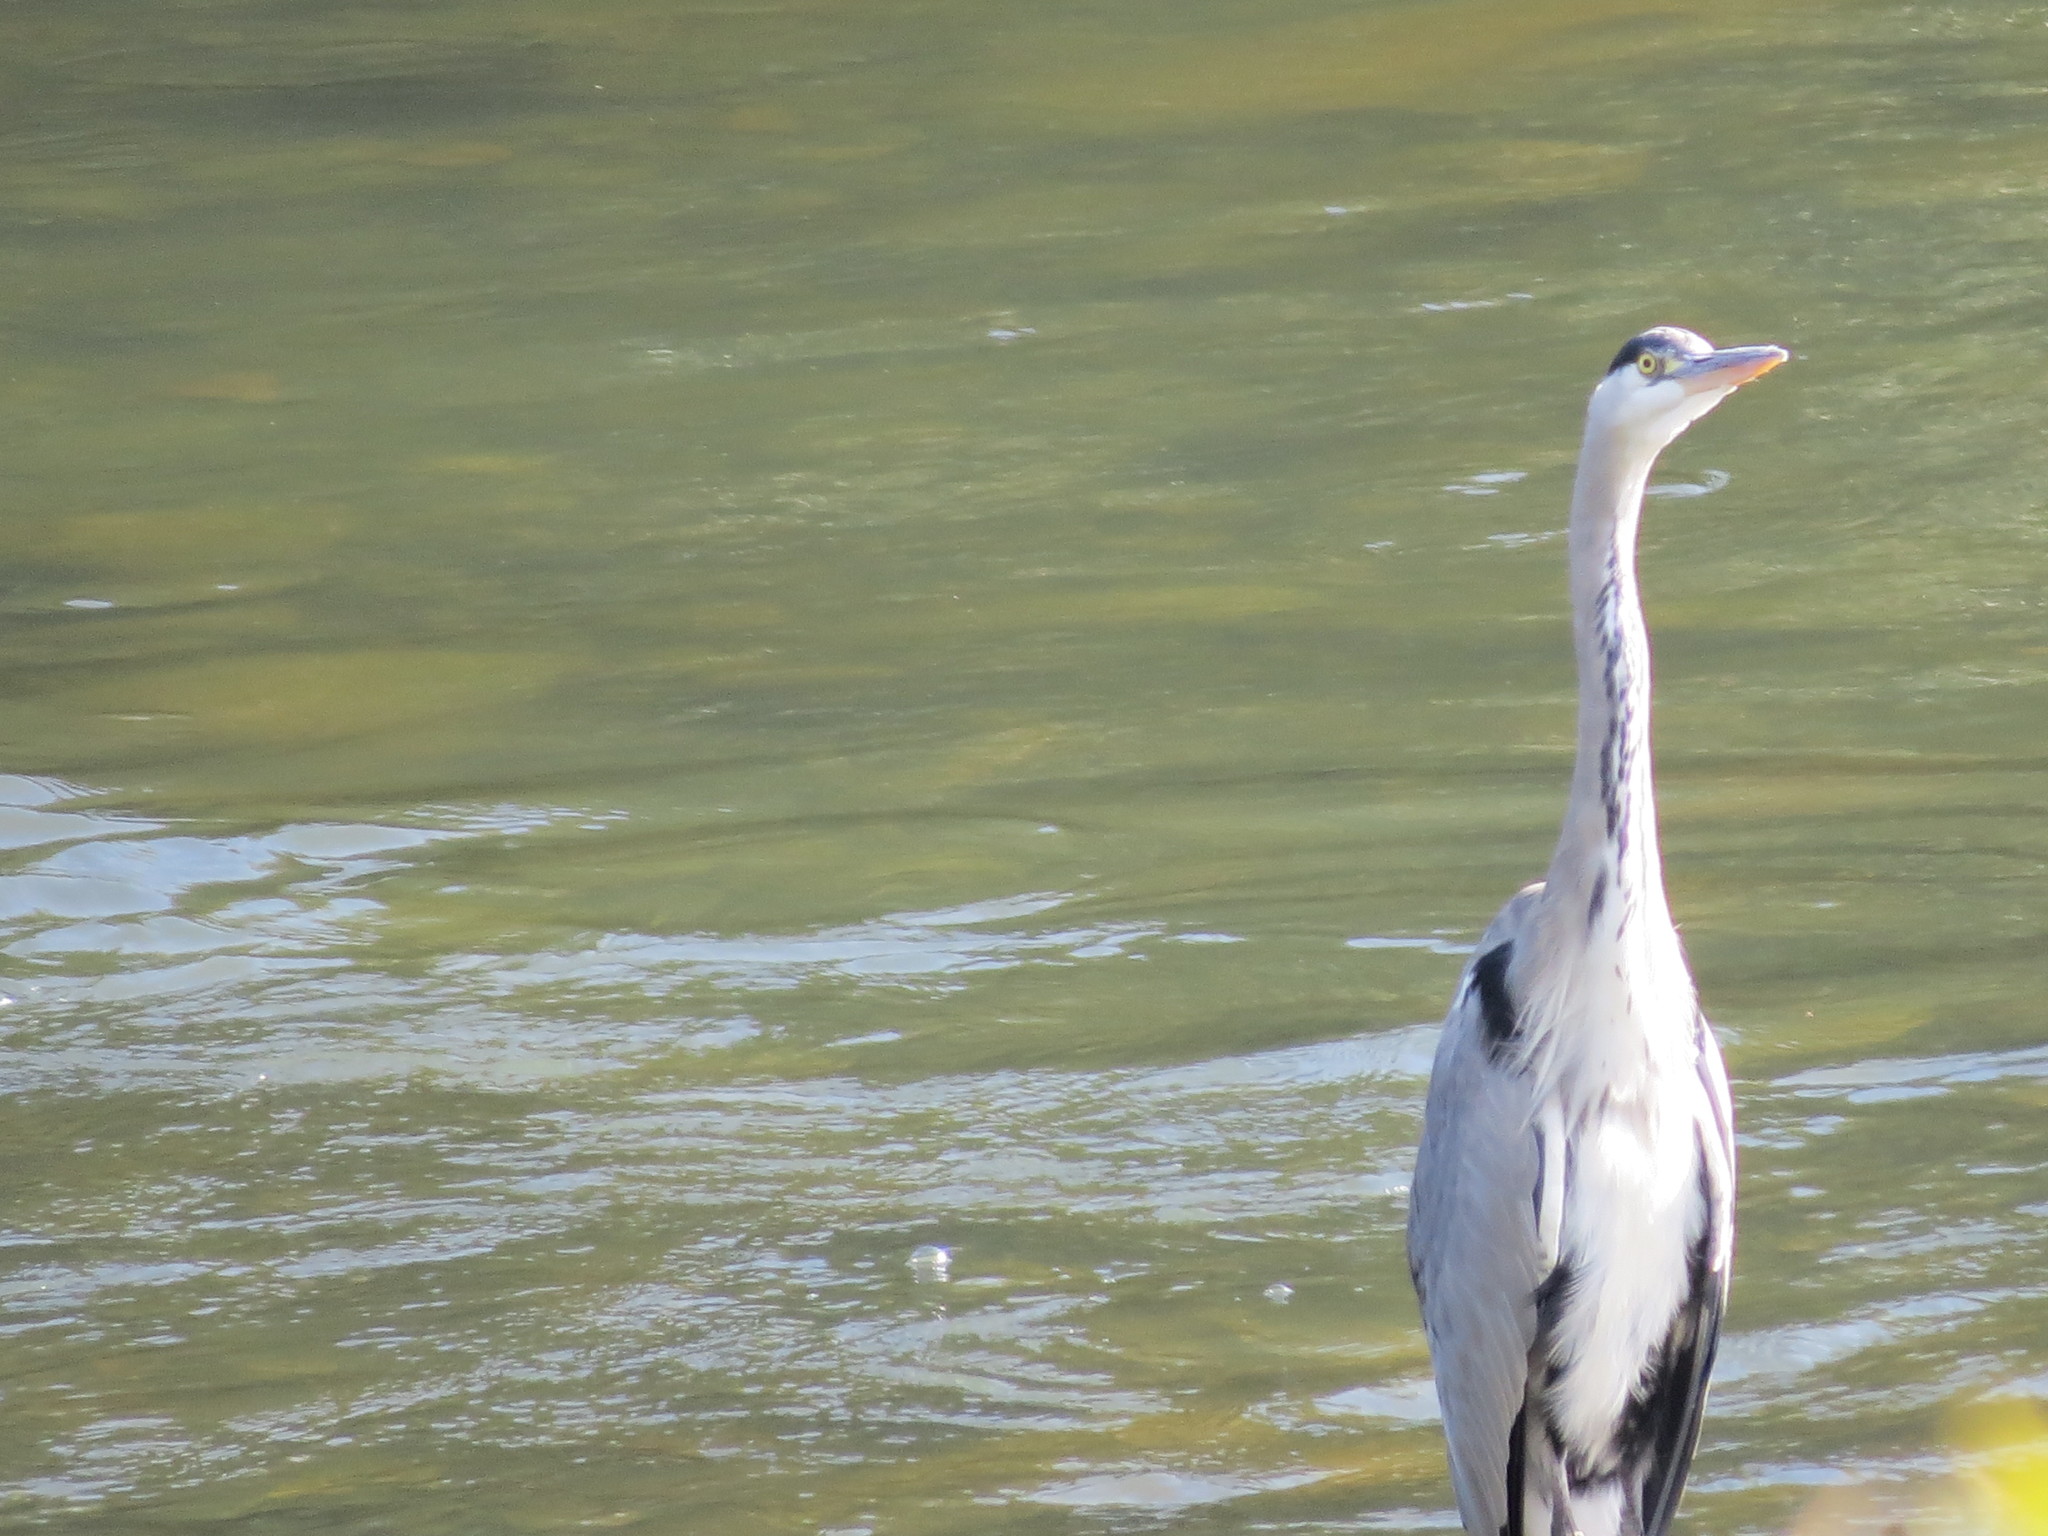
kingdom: Animalia
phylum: Chordata
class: Aves
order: Pelecaniformes
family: Ardeidae
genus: Ardea
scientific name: Ardea cinerea
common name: Grey heron
